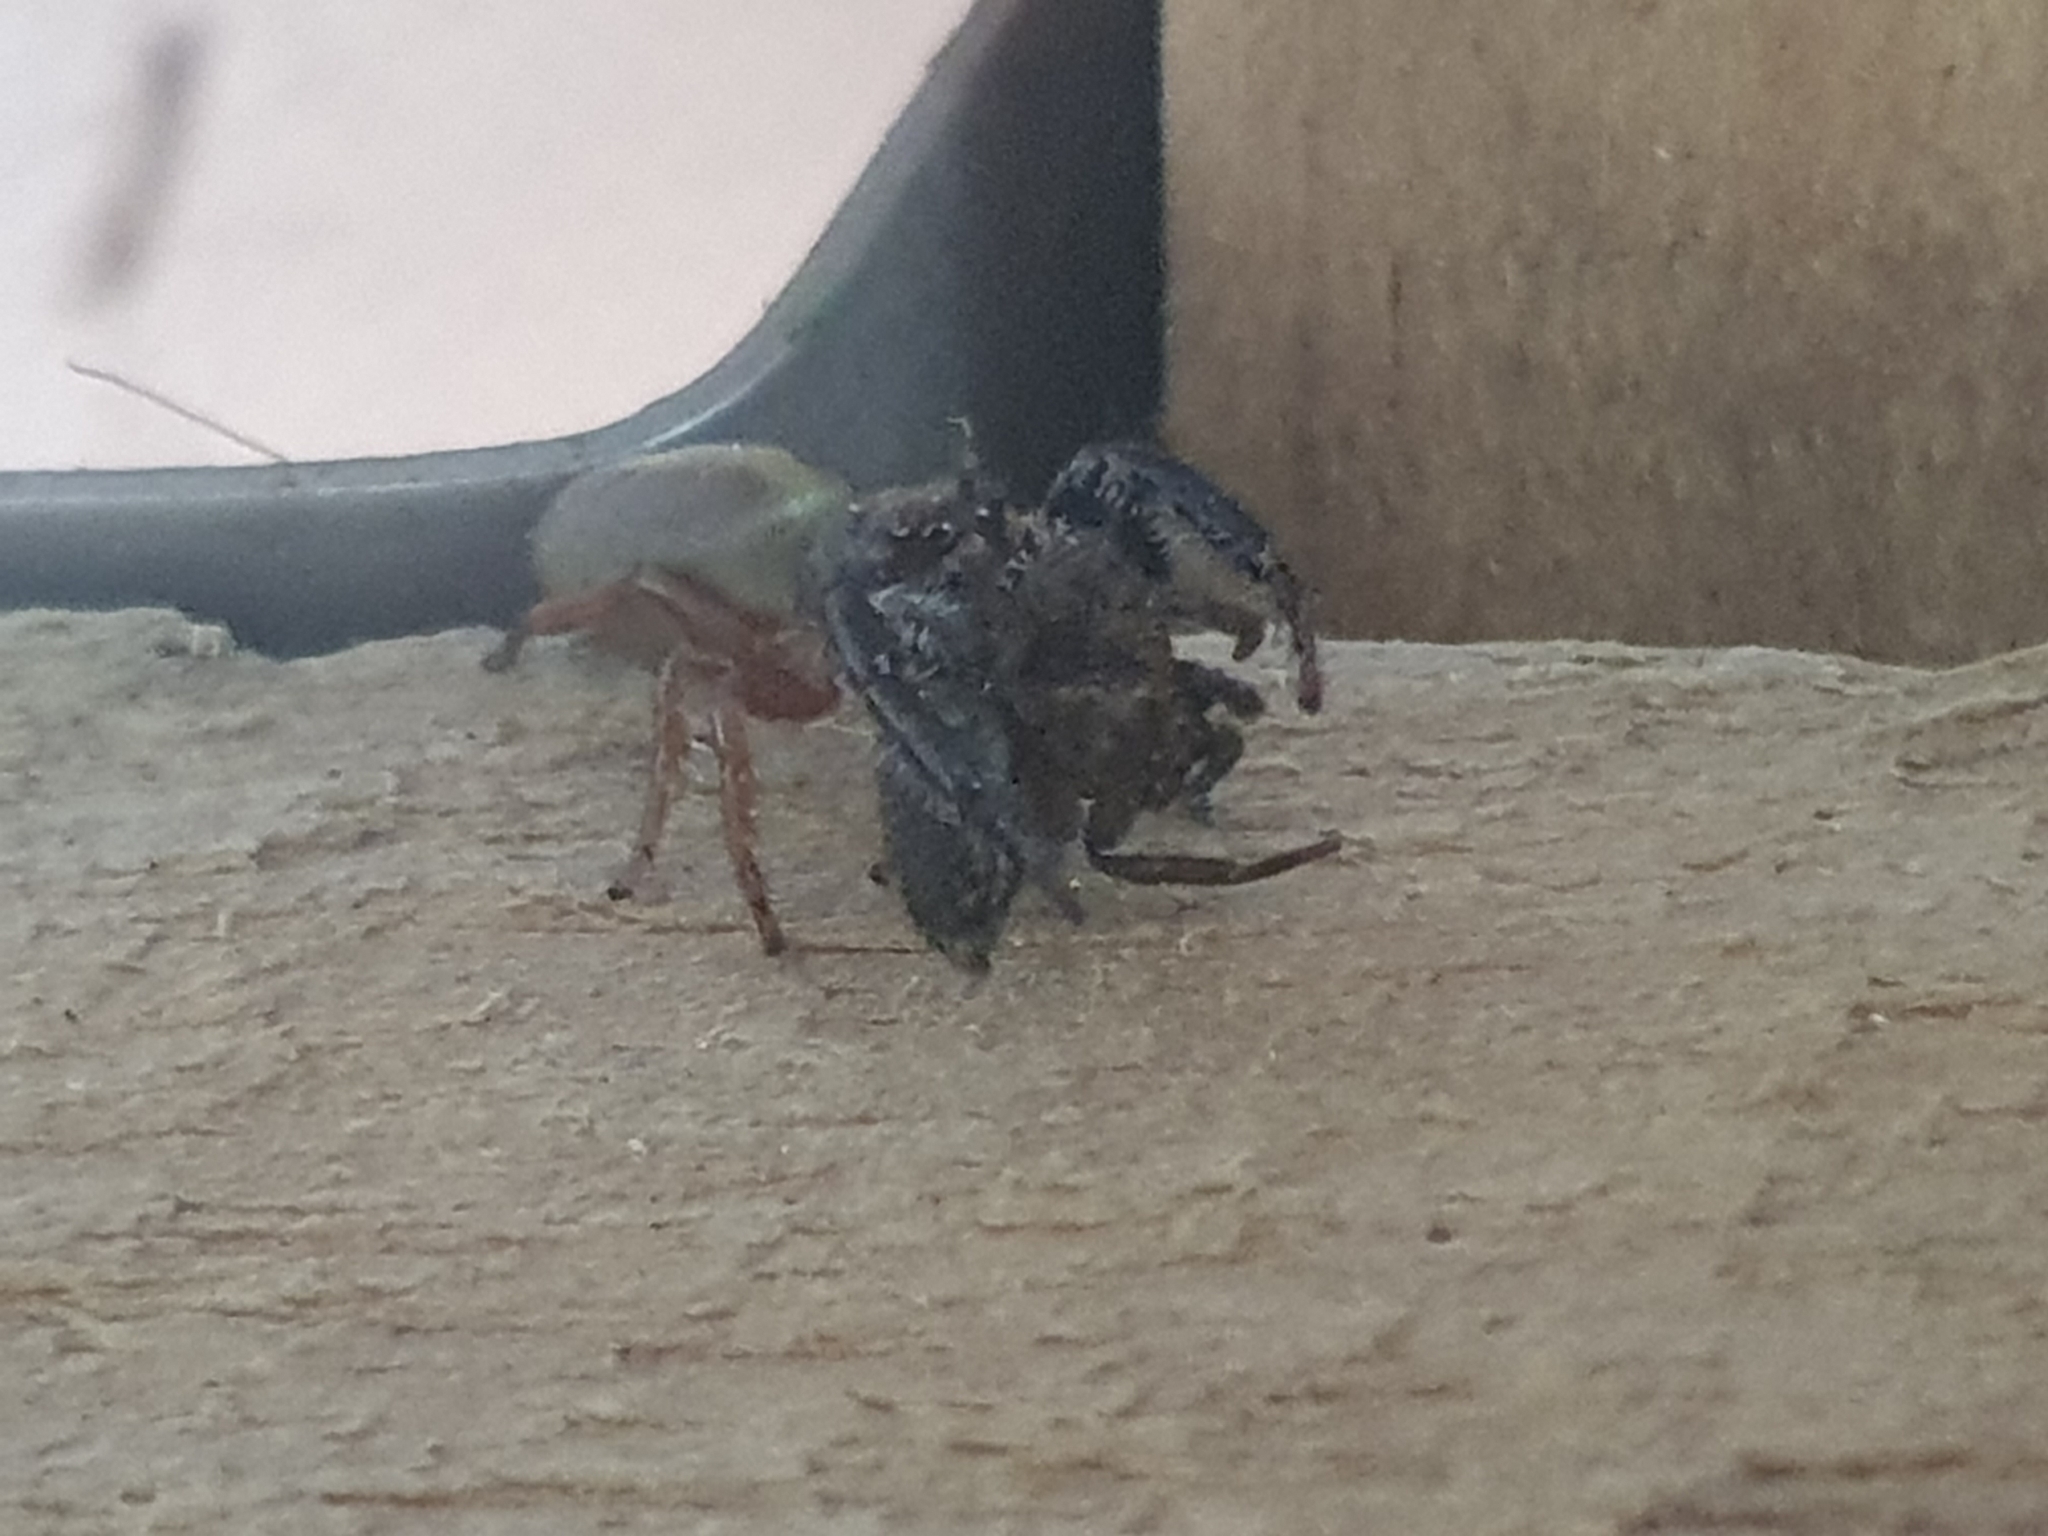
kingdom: Animalia
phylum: Arthropoda
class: Arachnida
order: Araneae
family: Salticidae
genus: Trite
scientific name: Trite planiceps
